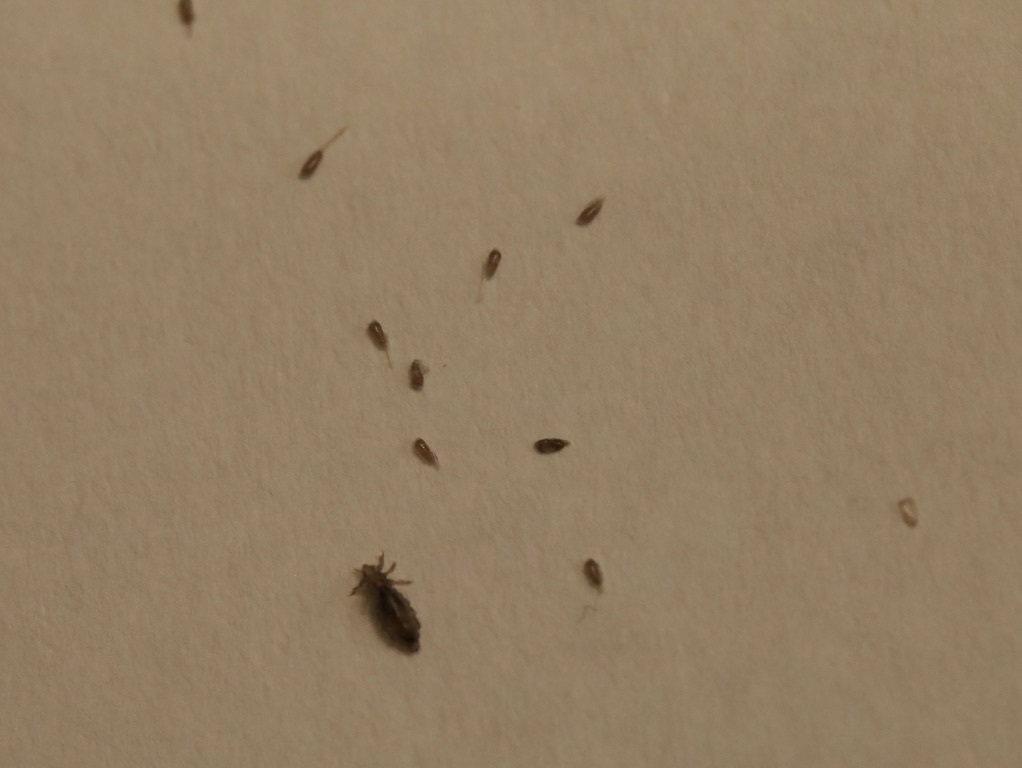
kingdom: Animalia
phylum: Arthropoda
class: Insecta
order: Psocodea
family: Pediculidae
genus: Pediculus
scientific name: Pediculus humanus
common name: Body louse
